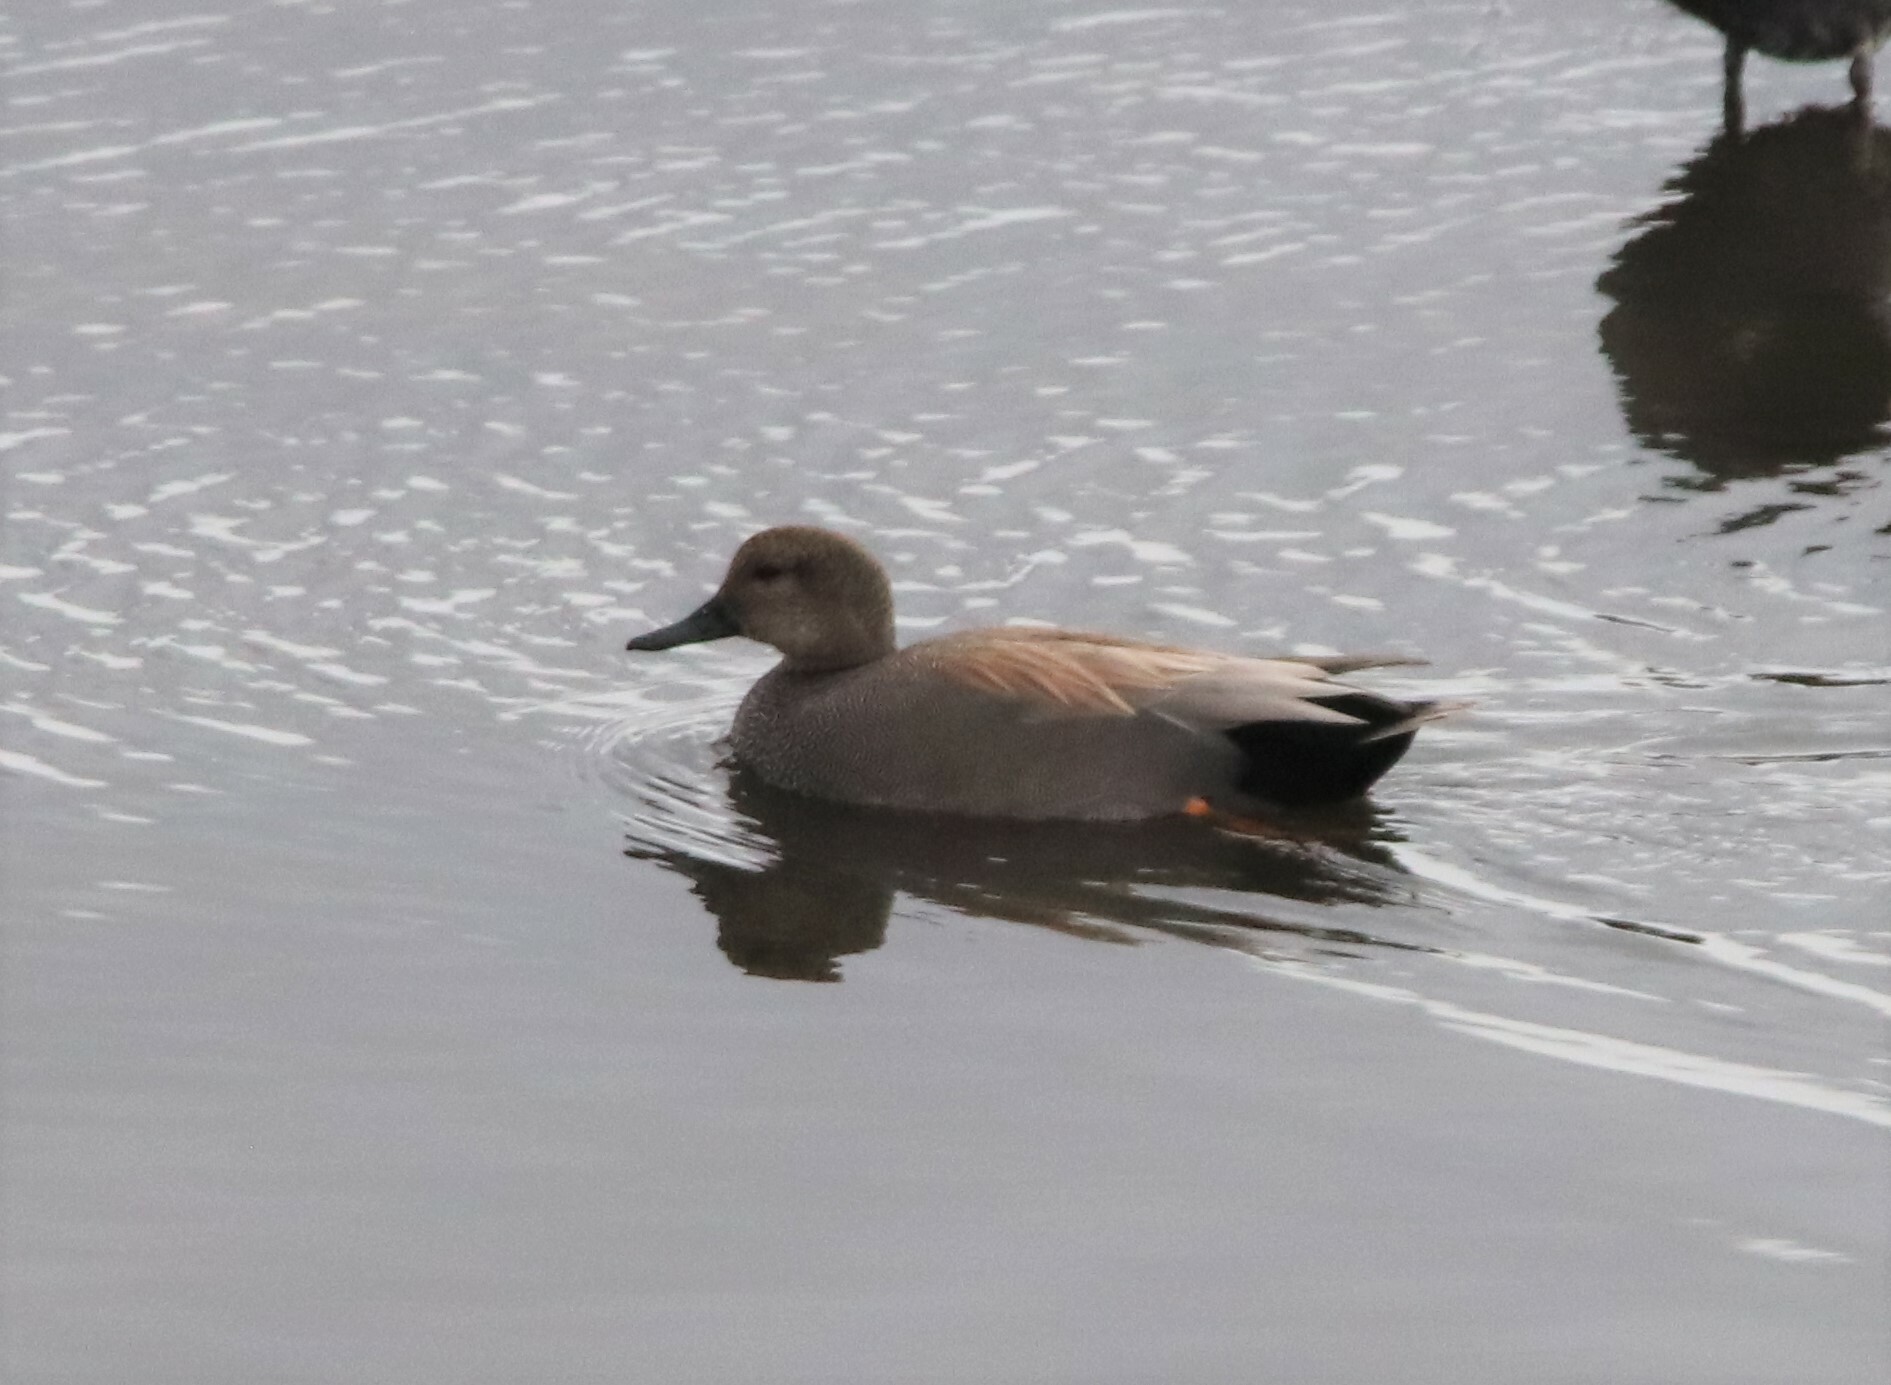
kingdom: Animalia
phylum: Chordata
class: Aves
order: Anseriformes
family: Anatidae
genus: Mareca
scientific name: Mareca strepera
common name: Gadwall
